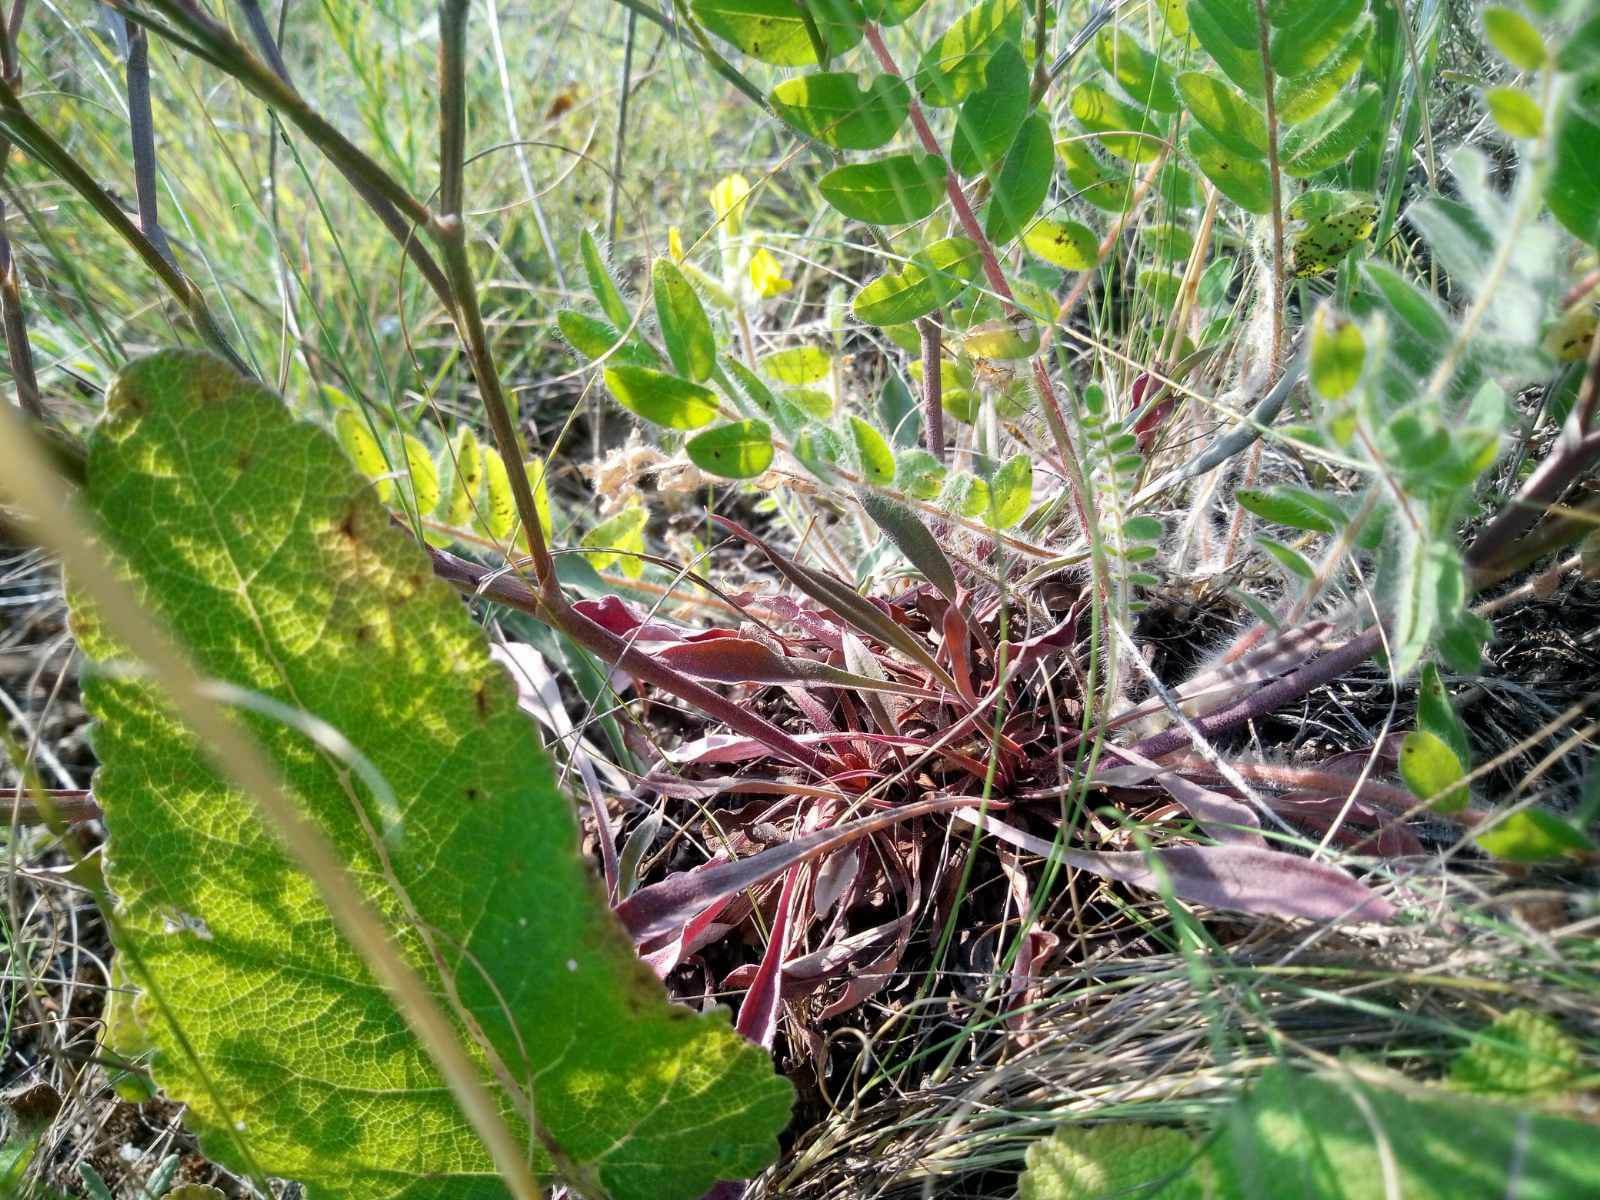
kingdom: Plantae
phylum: Tracheophyta
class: Magnoliopsida
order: Caryophyllales
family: Plumbaginaceae
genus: Goniolimon
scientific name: Goniolimon besserianum
